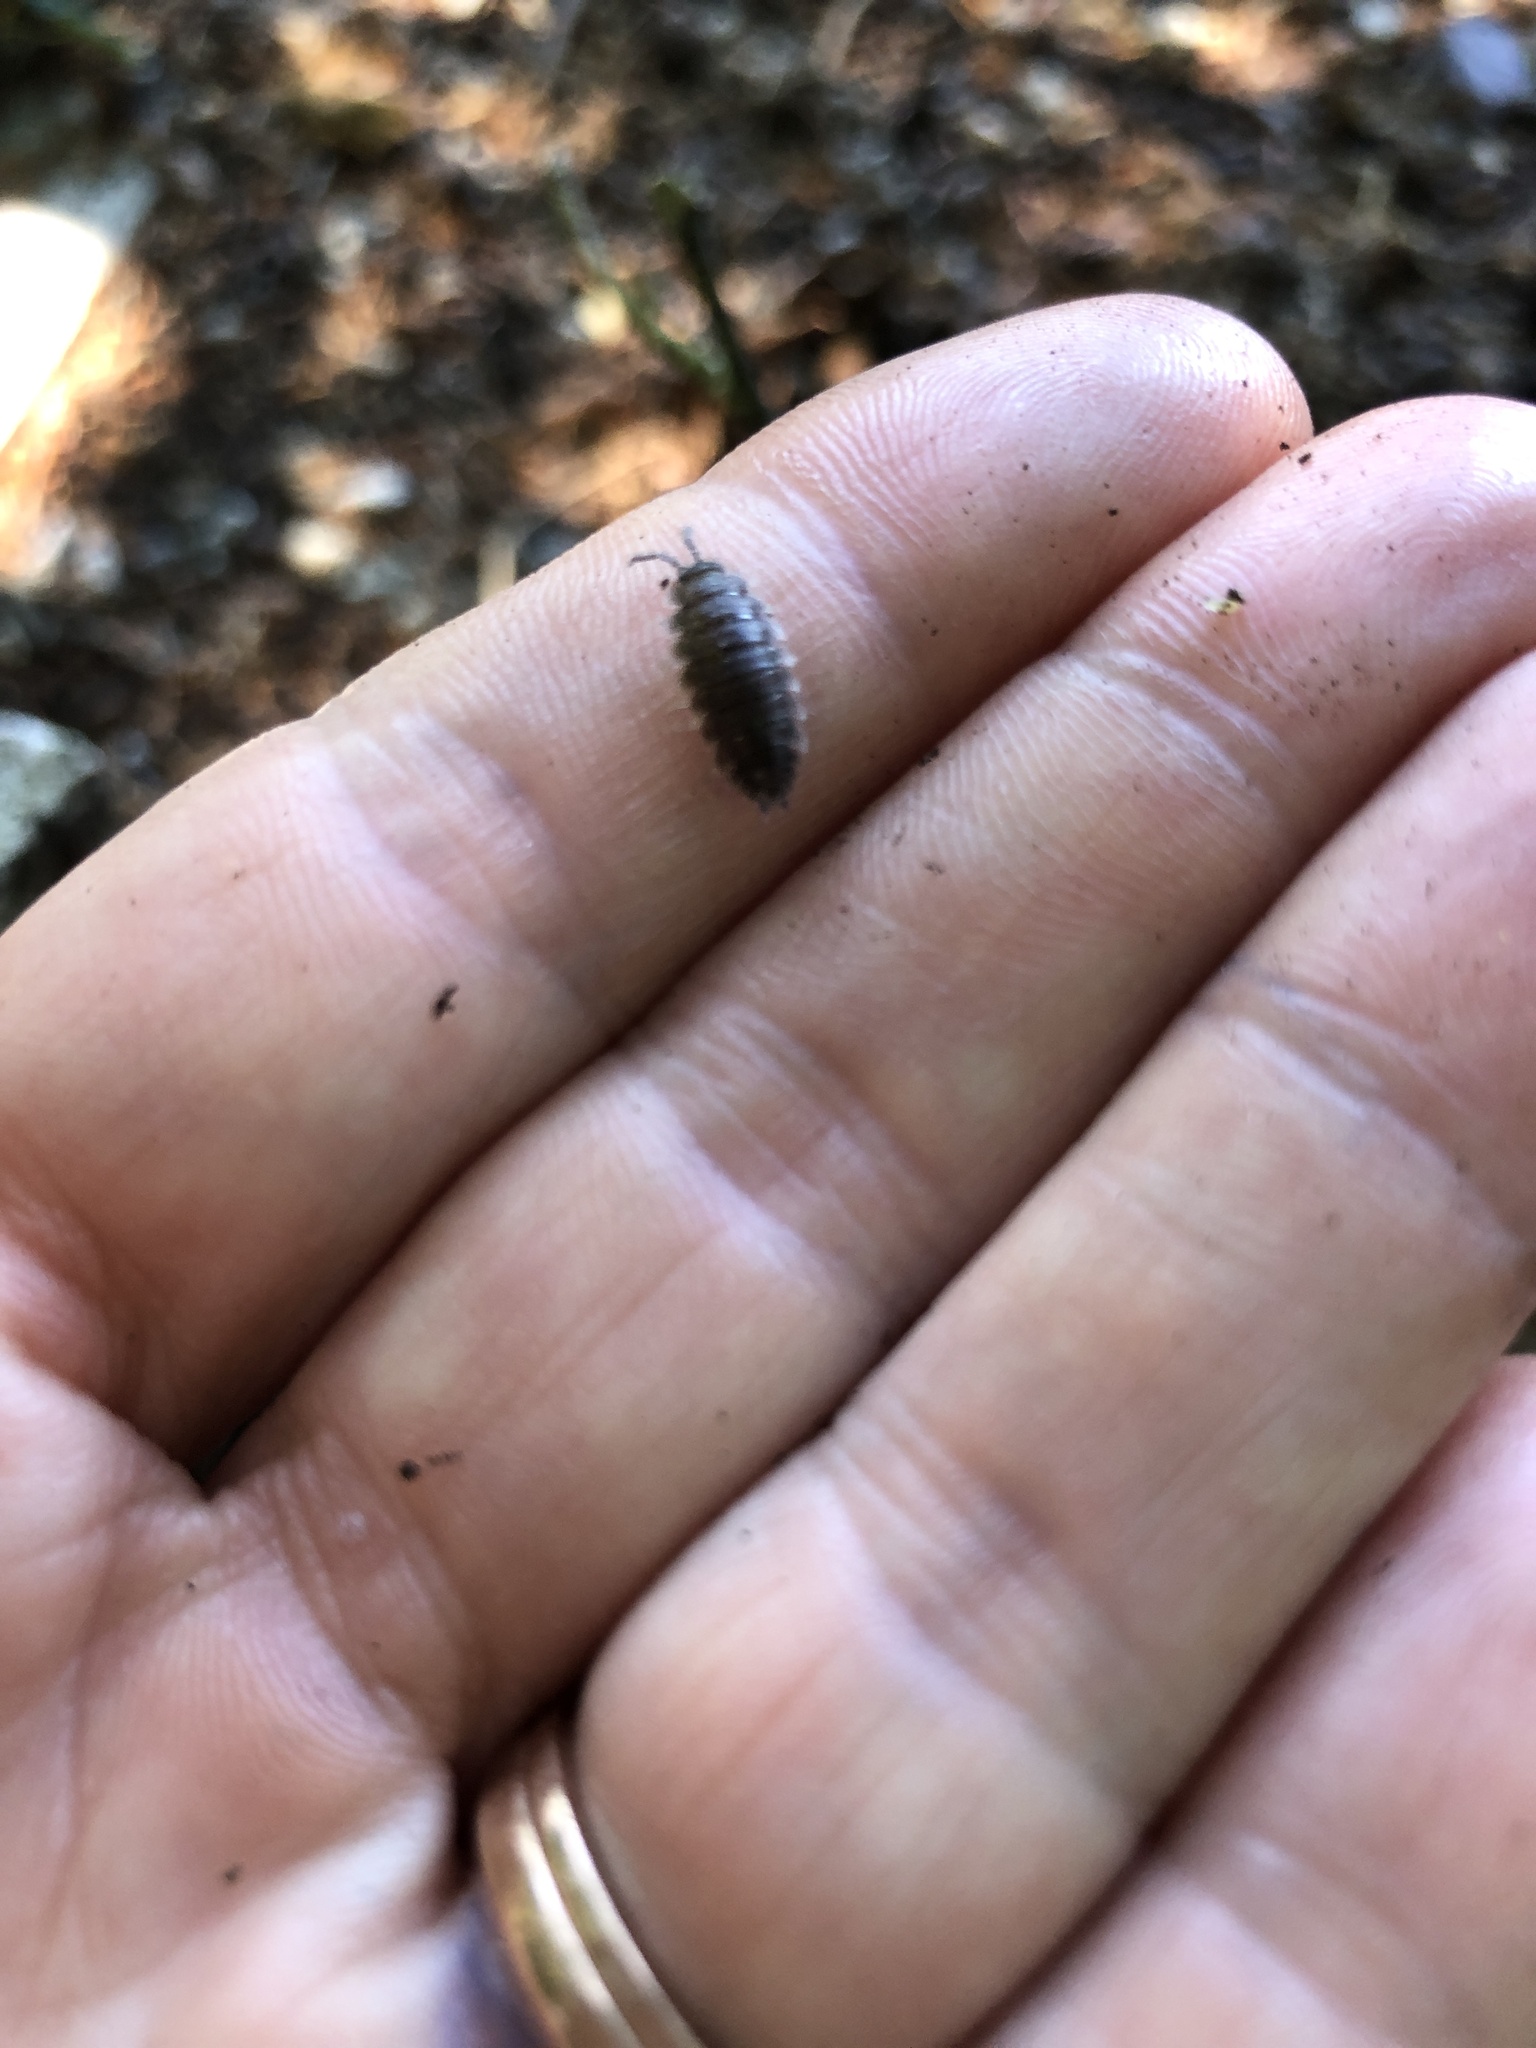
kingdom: Animalia
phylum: Arthropoda
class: Malacostraca
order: Isopoda
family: Porcellionidae
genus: Porcellio
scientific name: Porcellio scaber
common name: Common rough woodlouse
